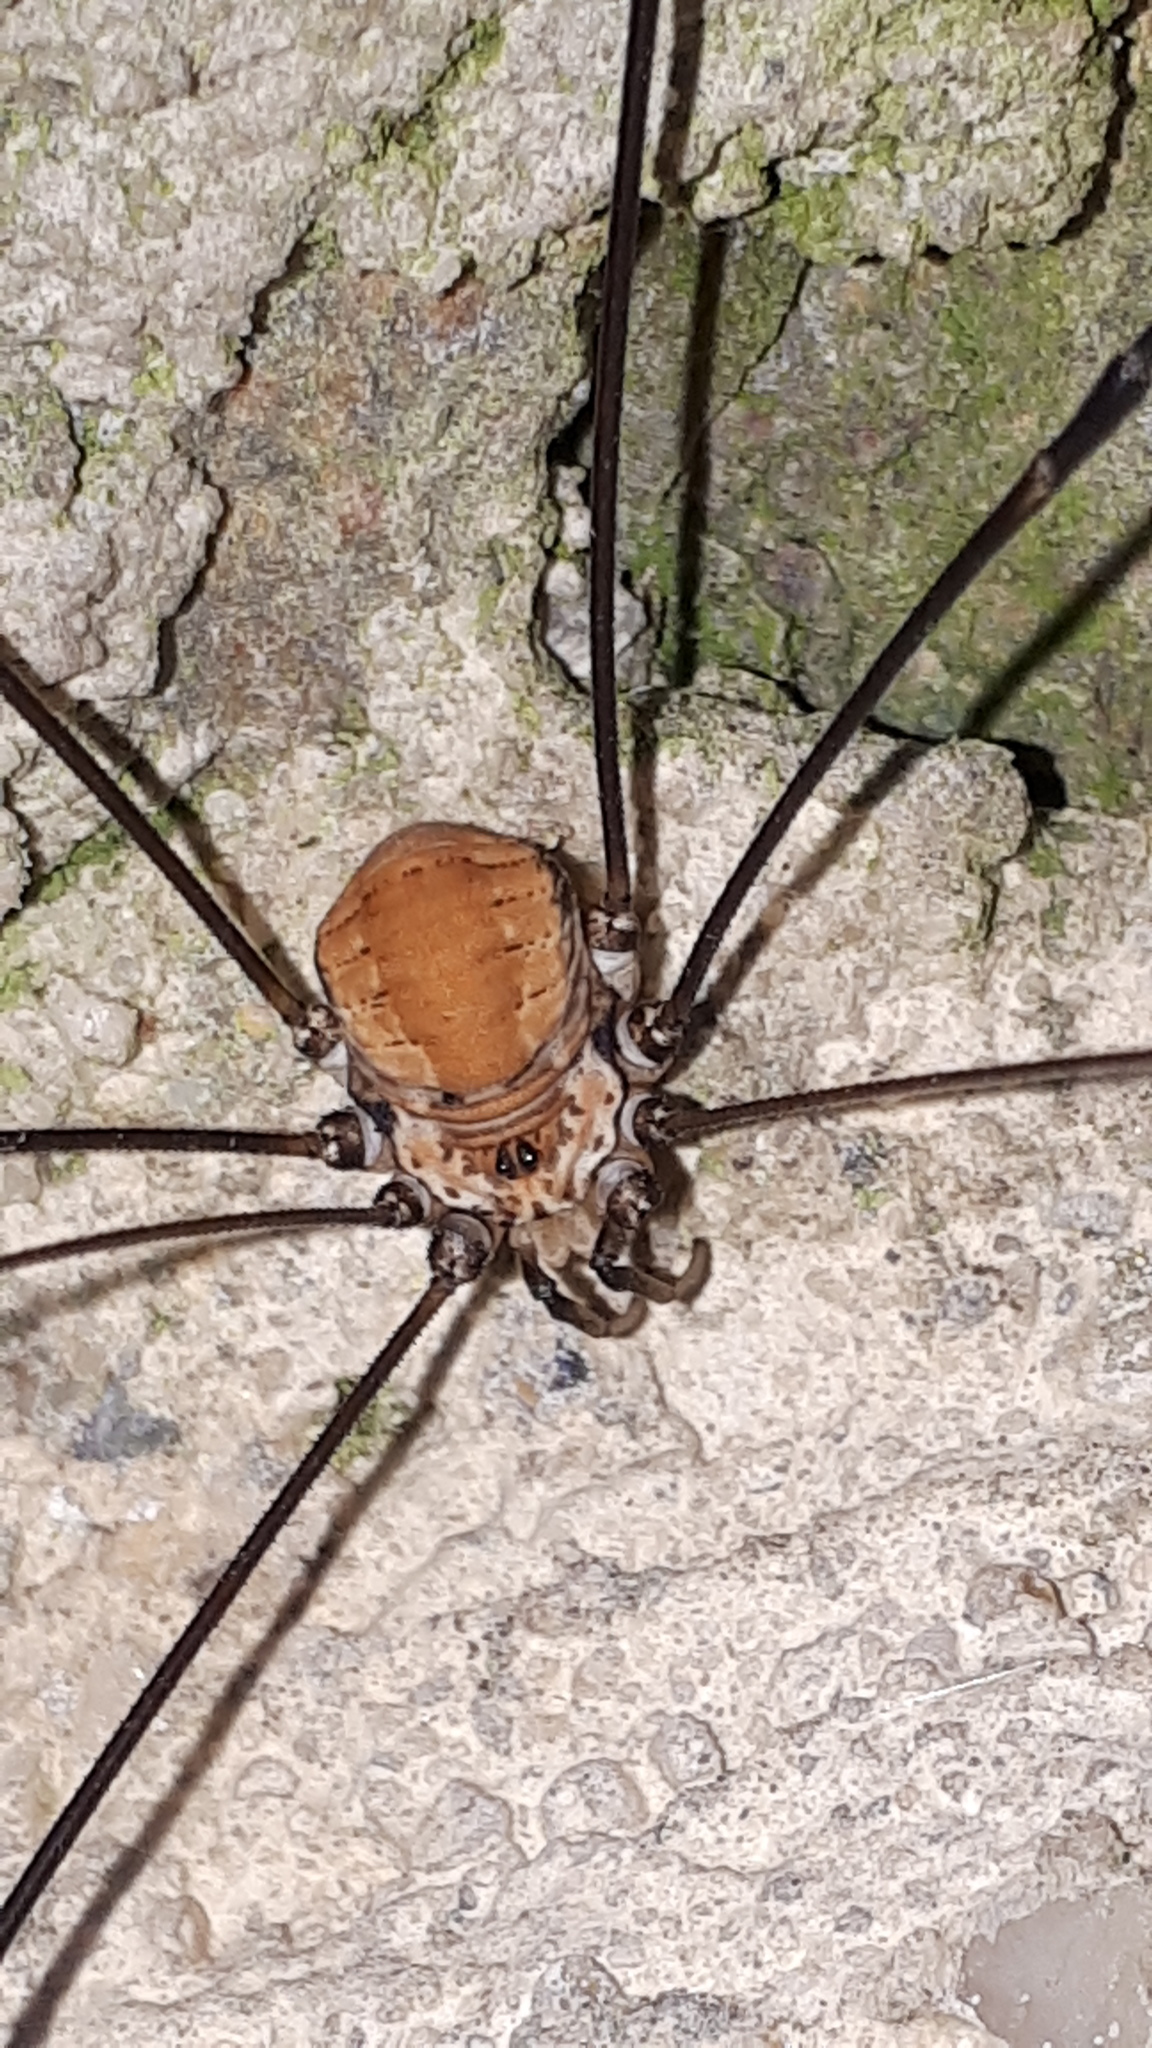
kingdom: Animalia
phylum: Arthropoda
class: Arachnida
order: Opiliones
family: Sclerosomatidae
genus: Leiobunum
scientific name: Leiobunum limbatum
